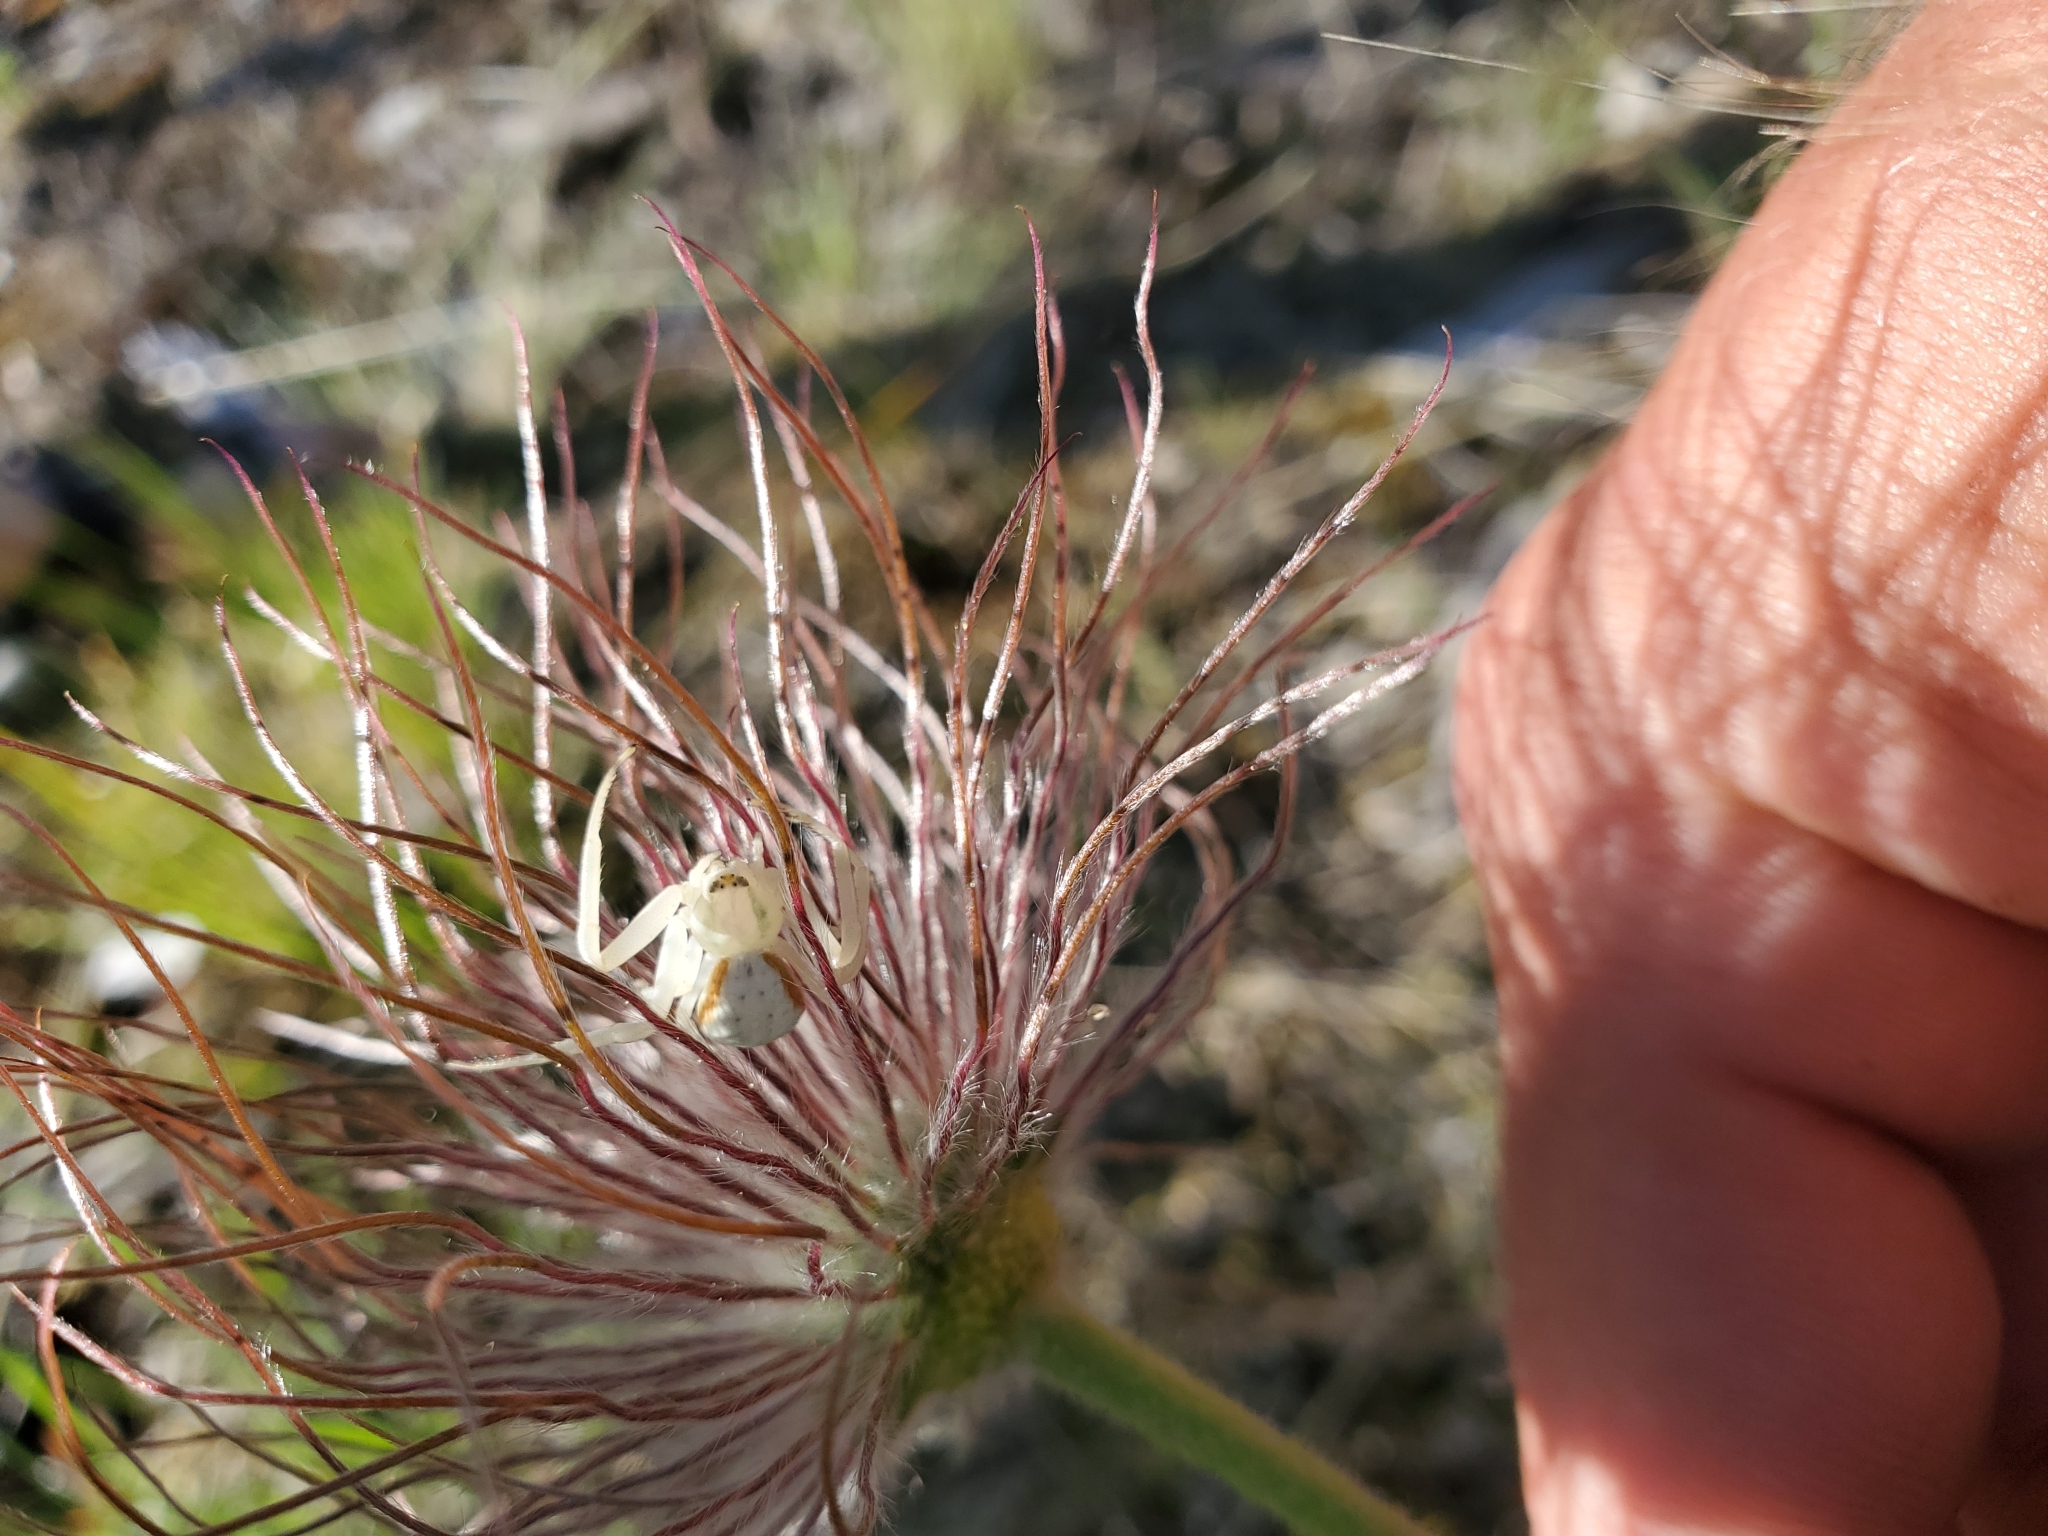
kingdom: Animalia
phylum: Arthropoda
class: Arachnida
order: Araneae
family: Thomisidae
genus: Misumena
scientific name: Misumena vatia
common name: Goldenrod crab spider
